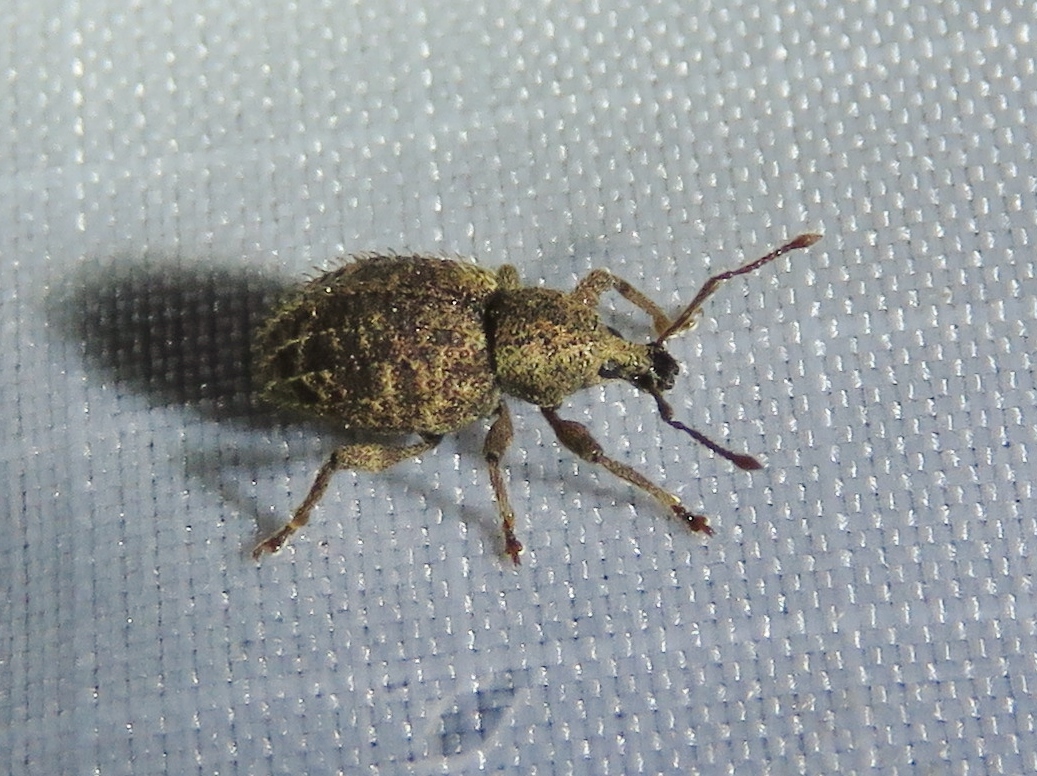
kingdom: Animalia
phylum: Arthropoda
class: Insecta
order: Coleoptera
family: Curculionidae
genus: Otiorhynchus
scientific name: Otiorhynchus carinatopunctatus
